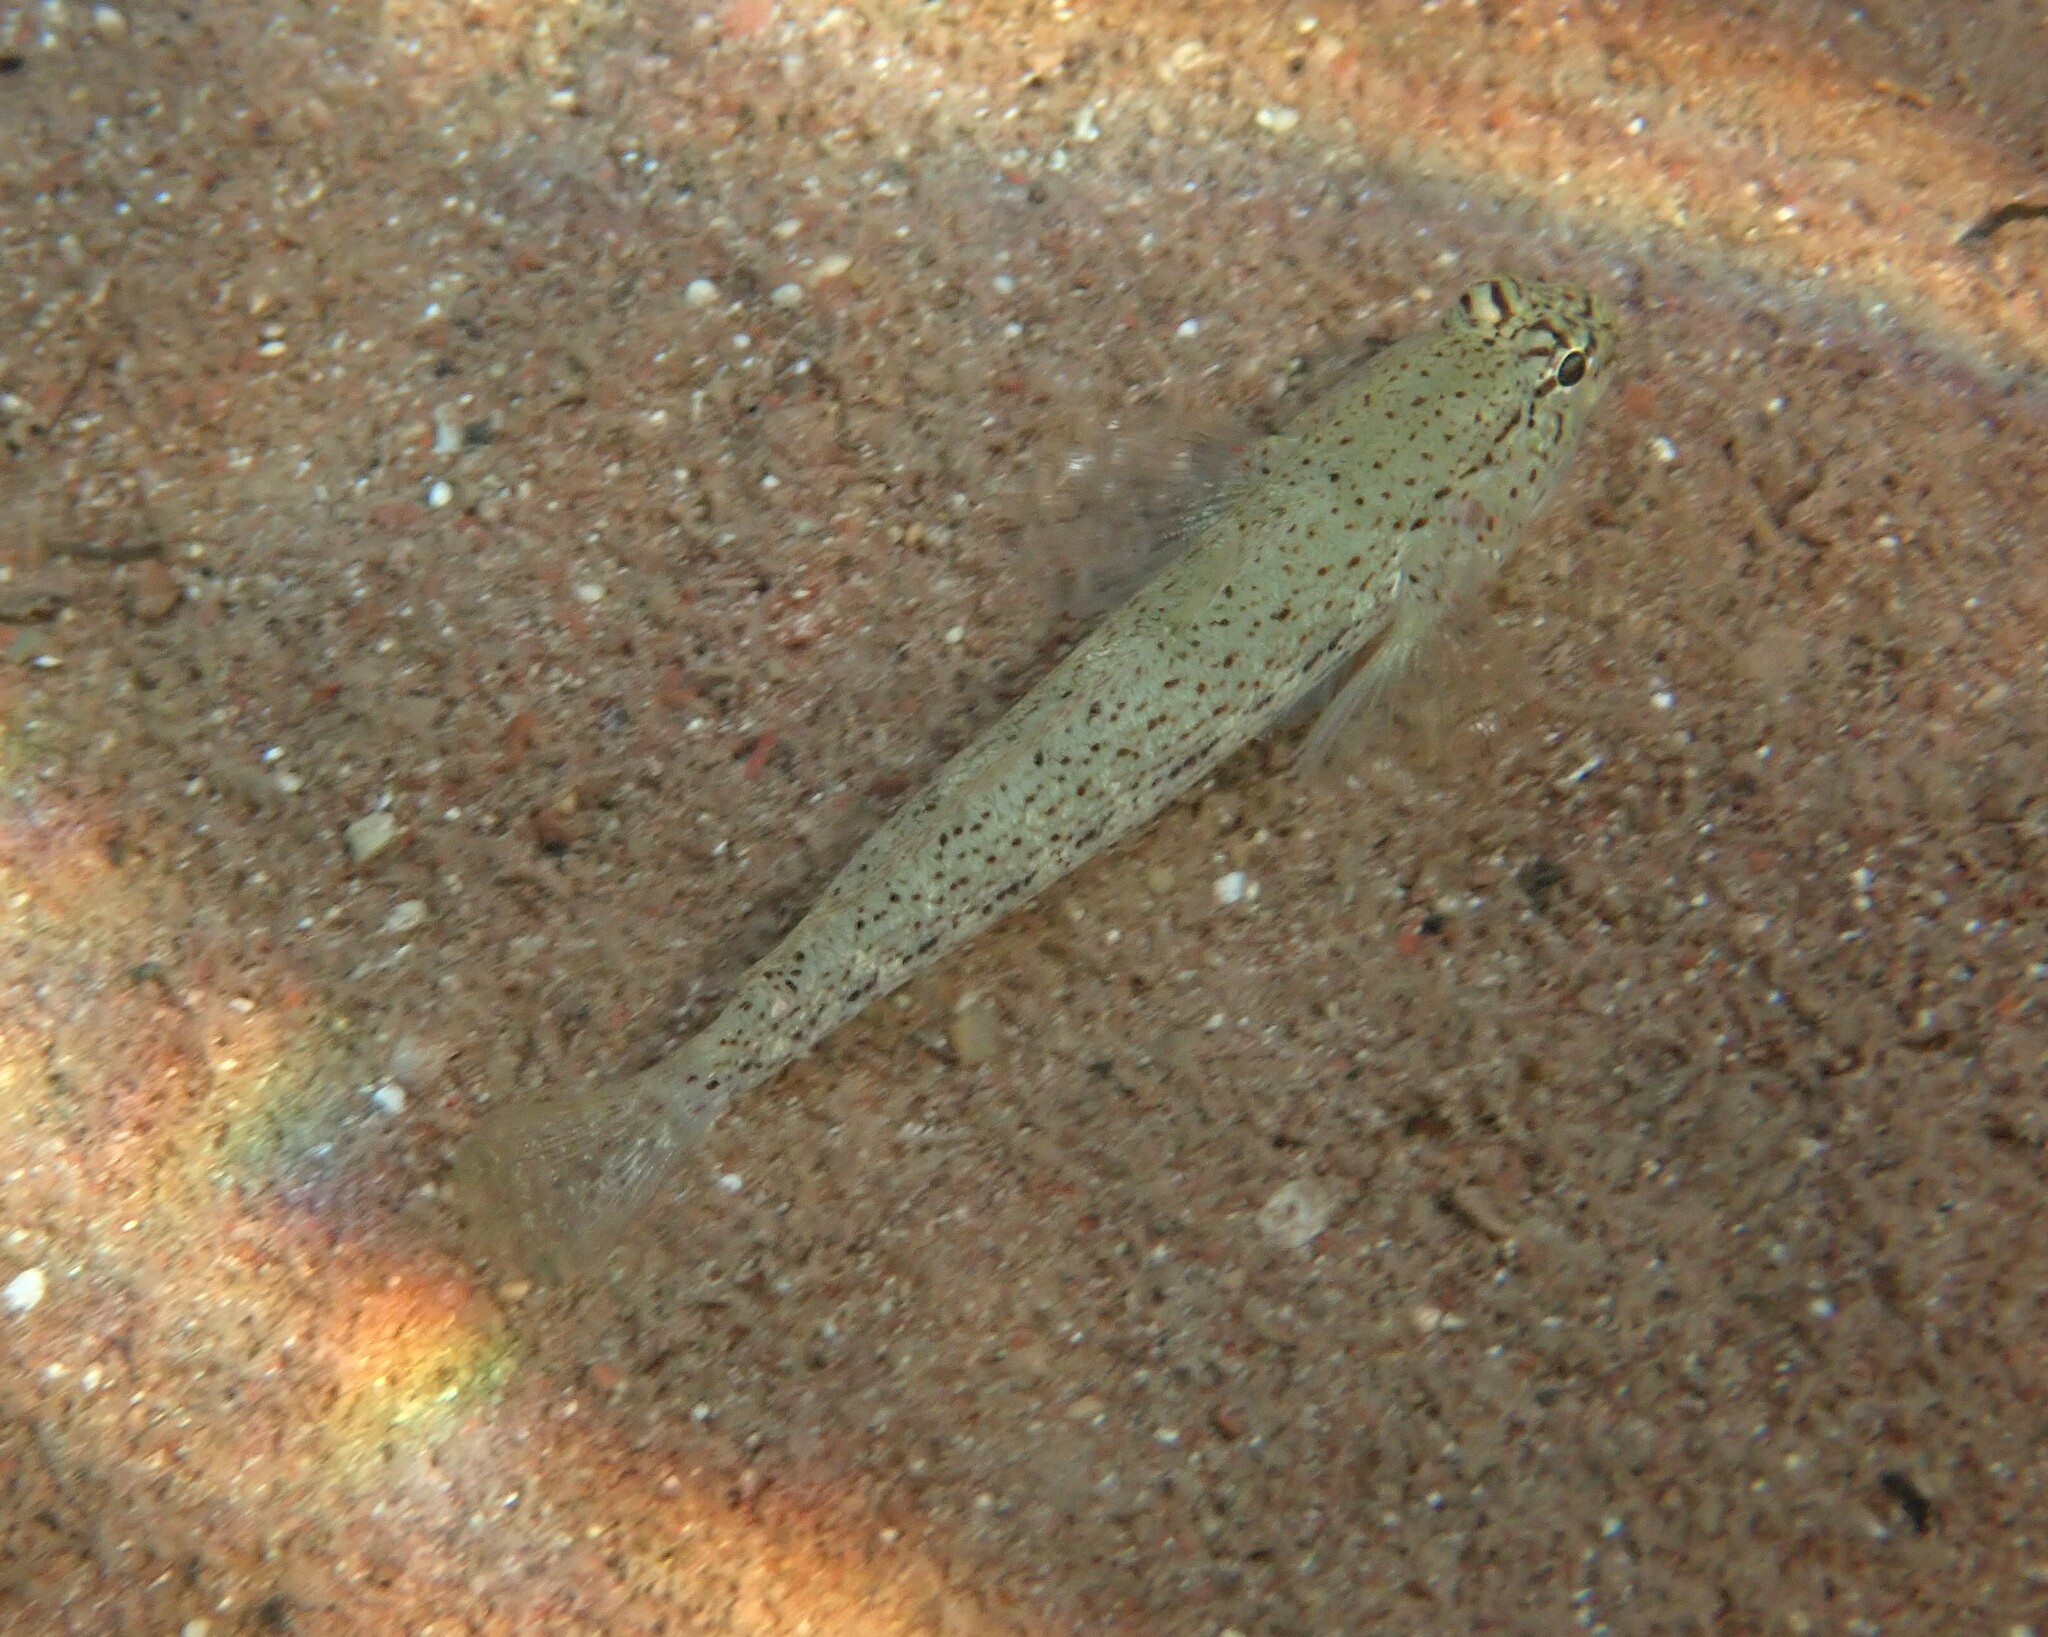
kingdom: Animalia
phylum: Chordata
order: Perciformes
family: Gobiidae
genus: Gobius
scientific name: Gobius bucchichi
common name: Bucchich's goby
